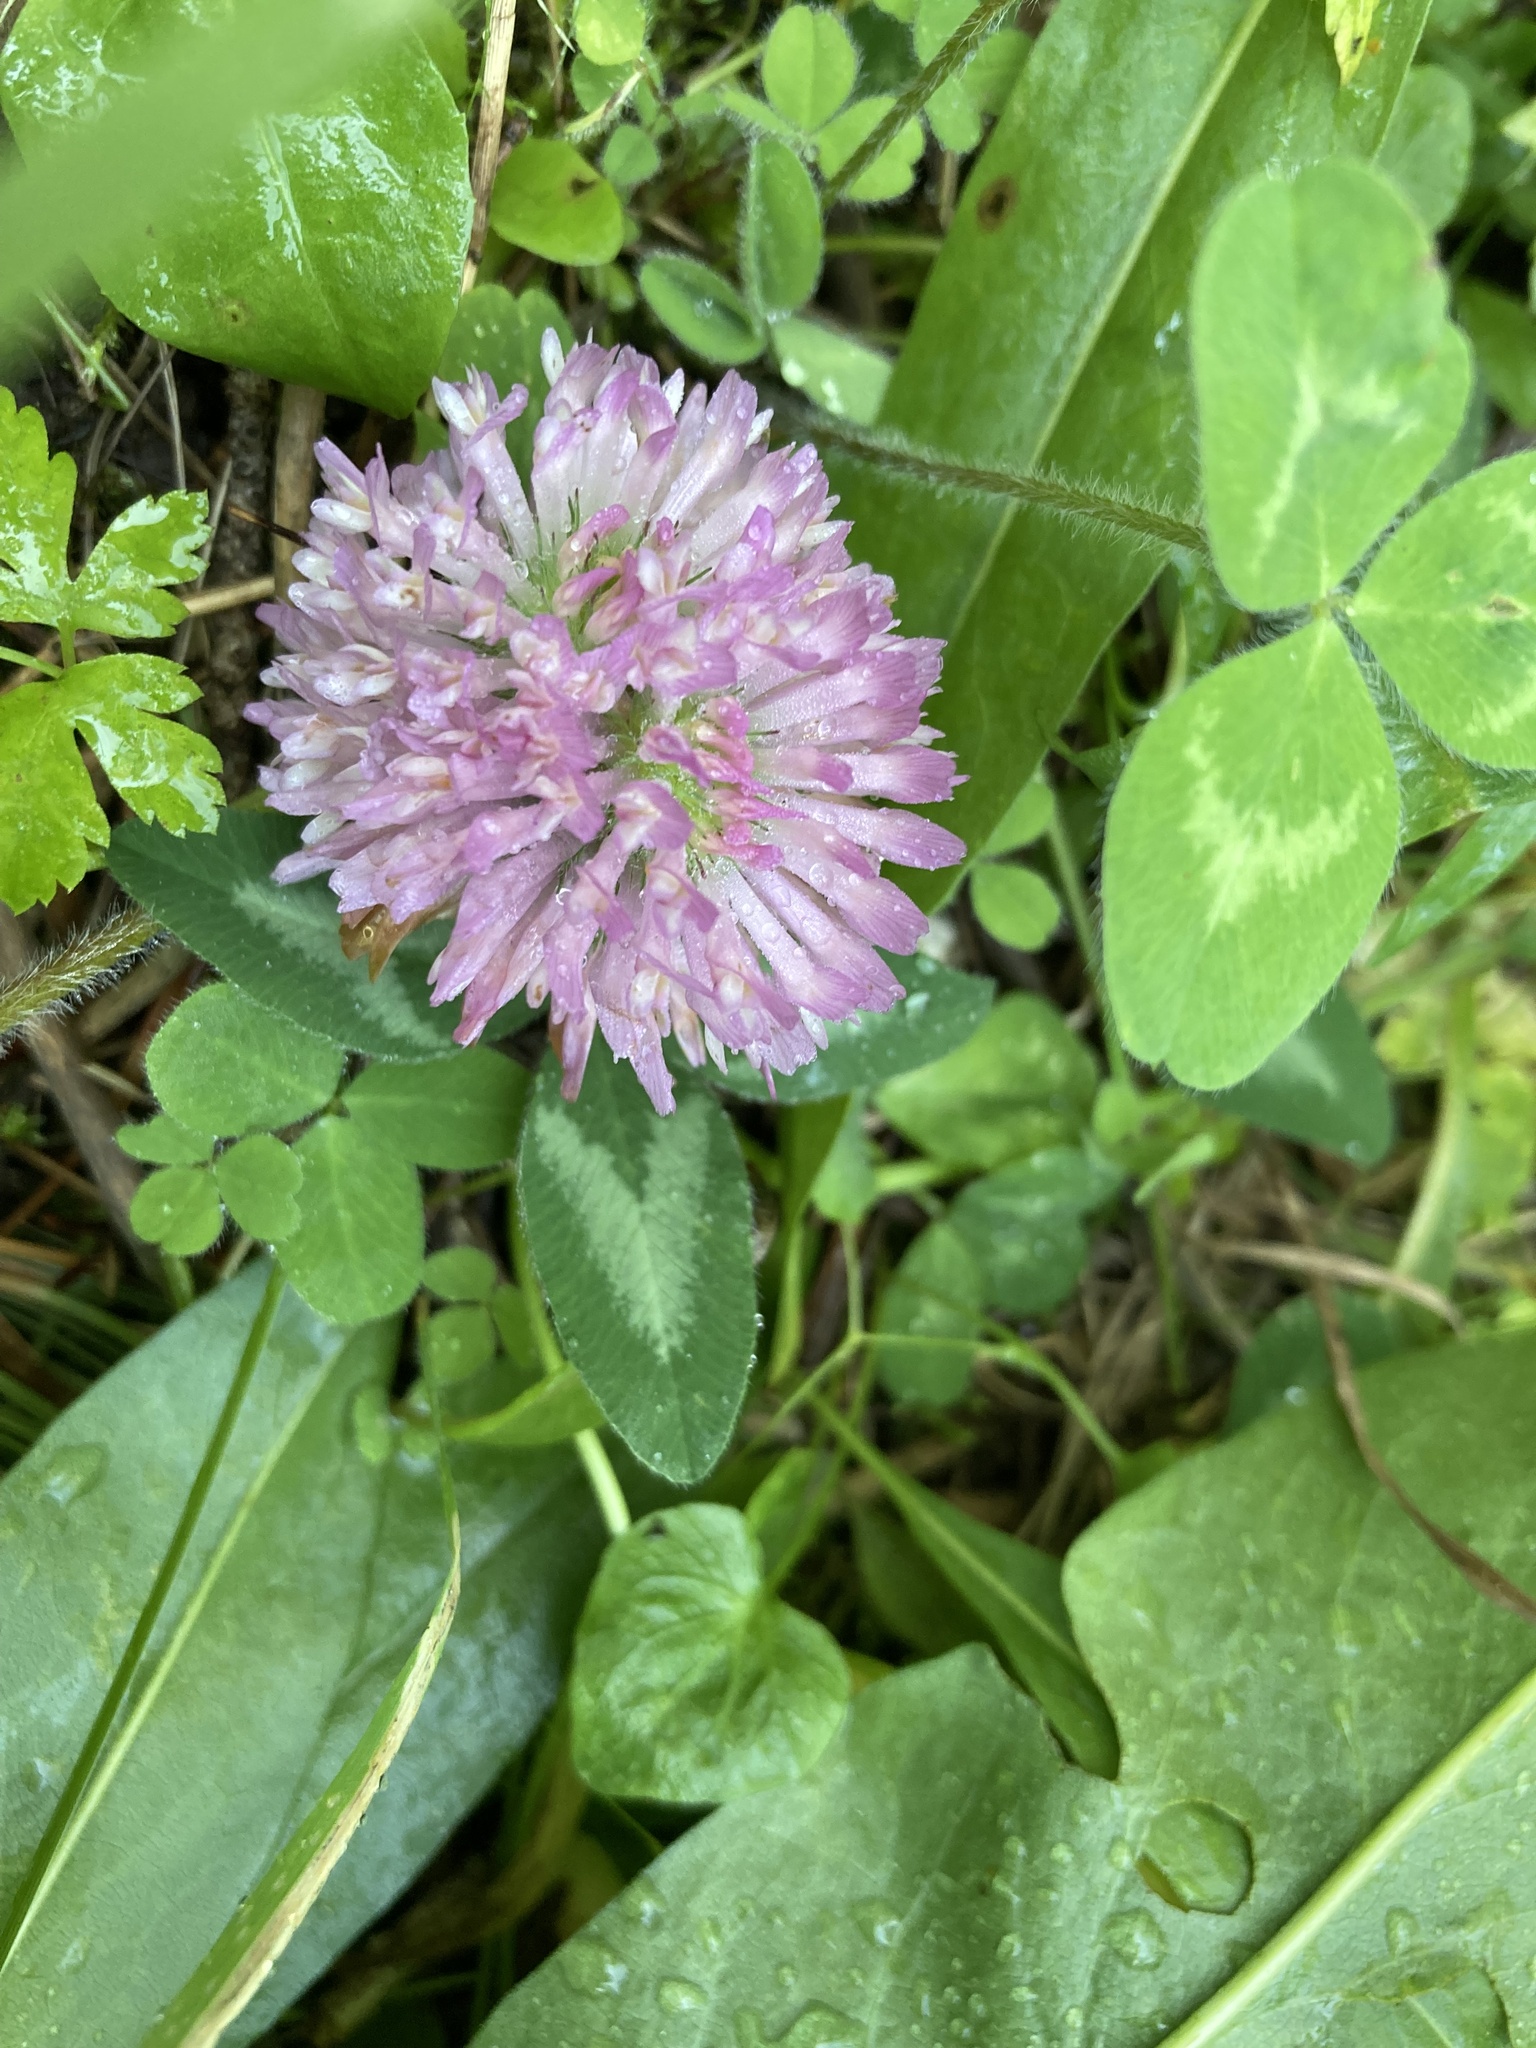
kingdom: Plantae
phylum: Tracheophyta
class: Magnoliopsida
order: Fabales
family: Fabaceae
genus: Trifolium
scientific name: Trifolium pratense
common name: Red clover
